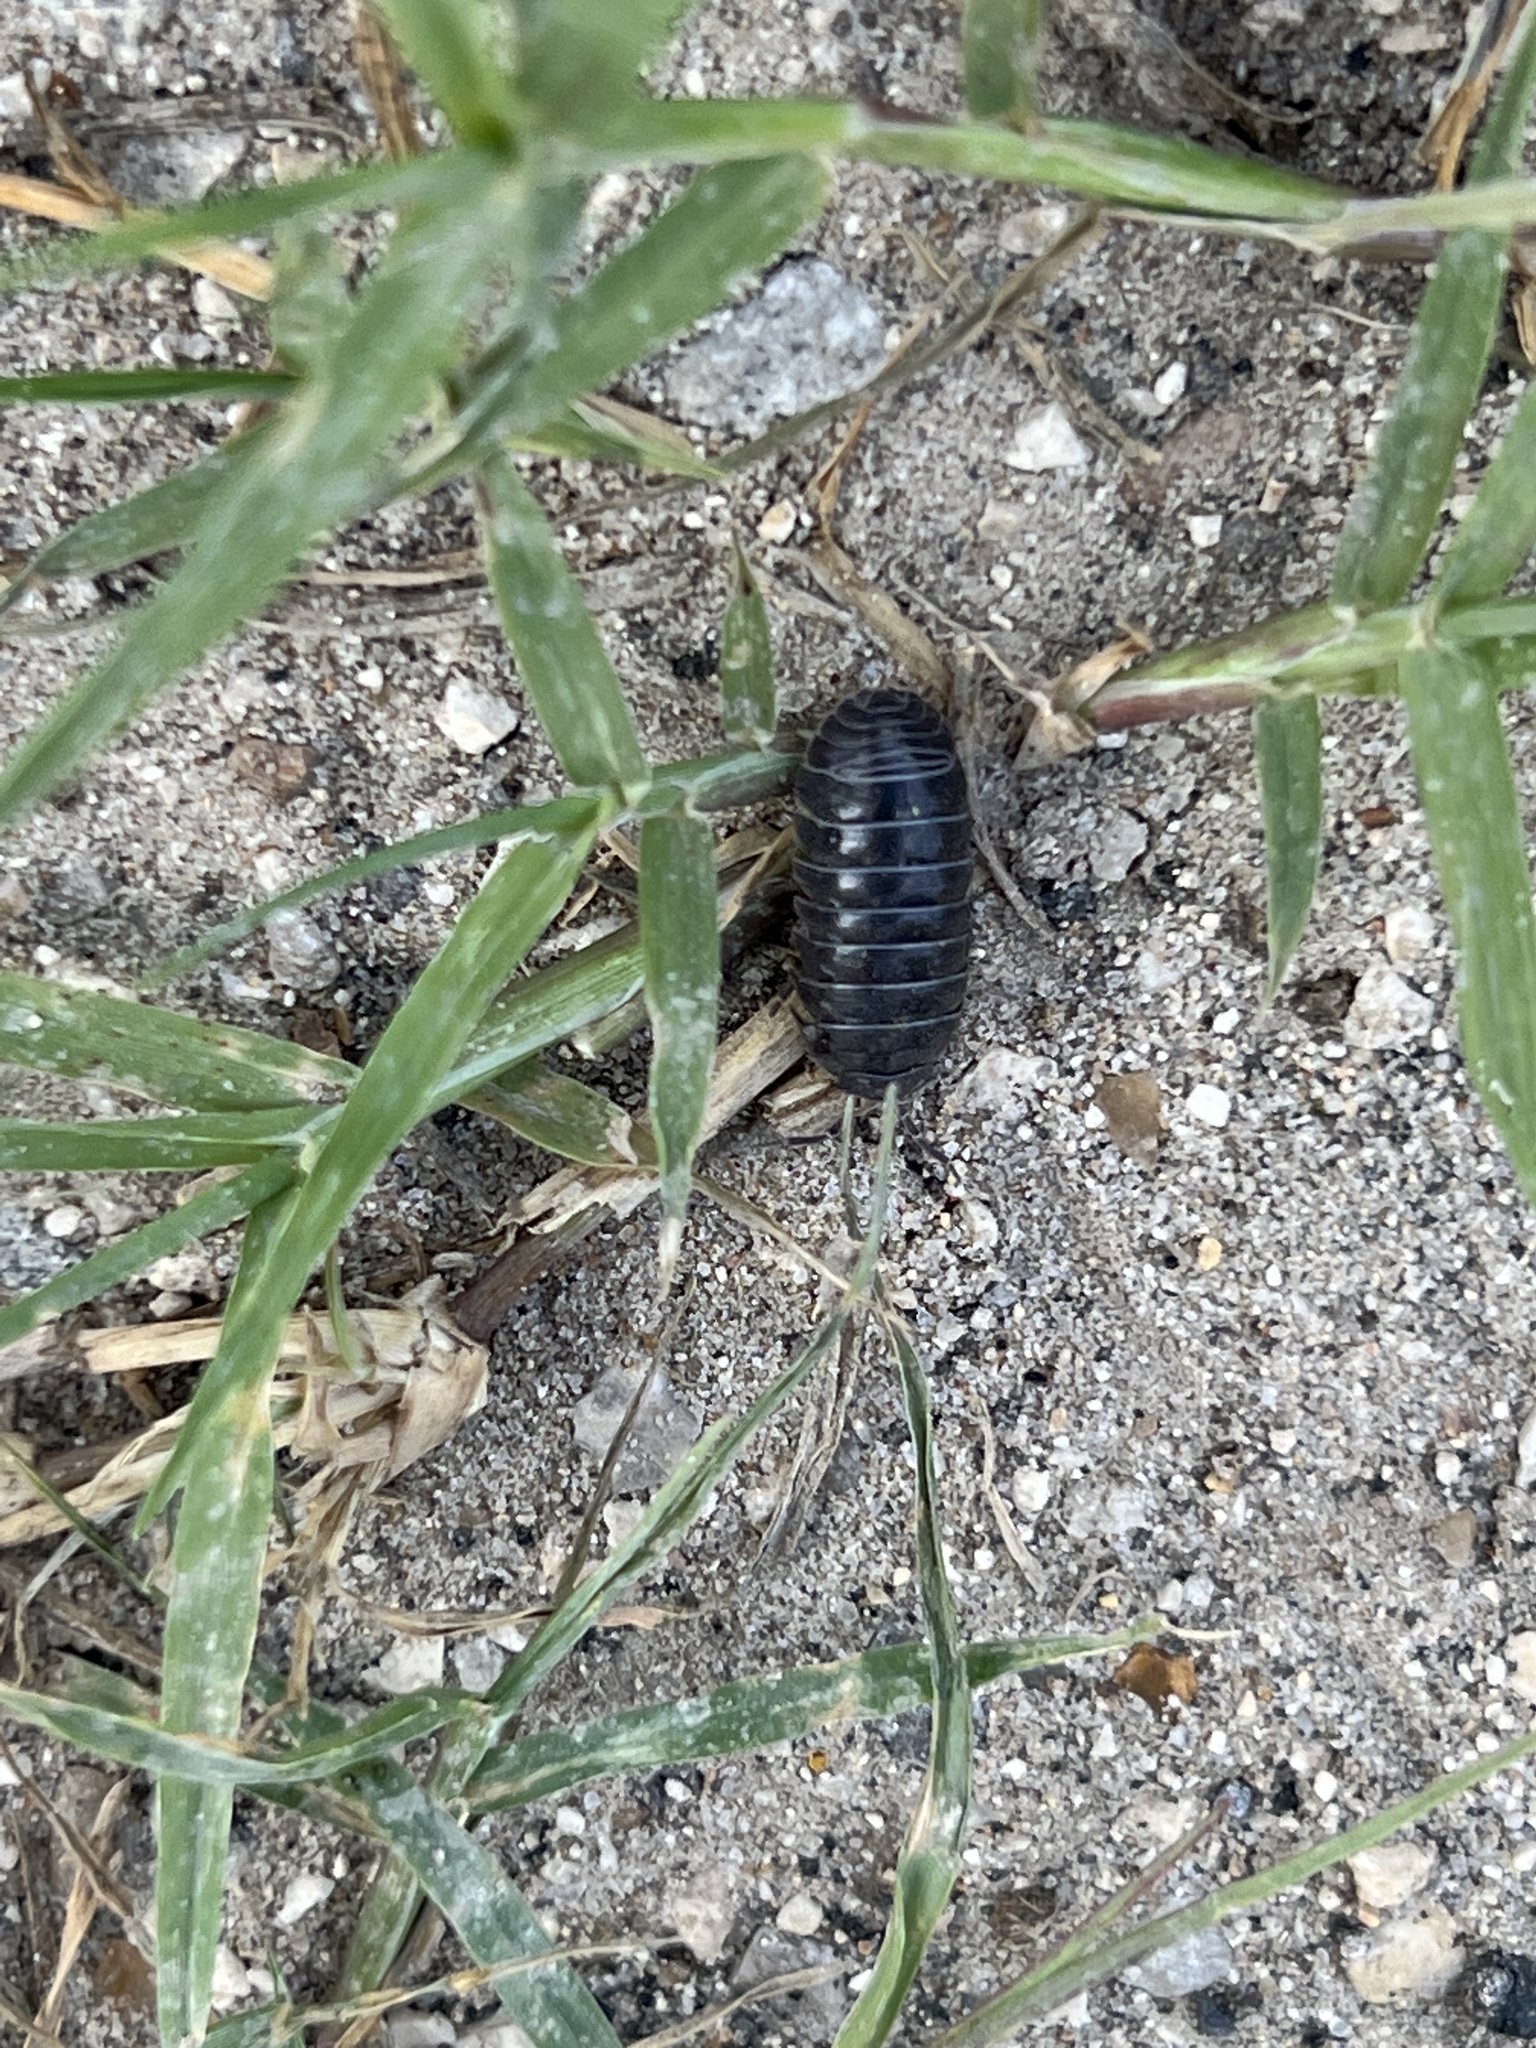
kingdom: Animalia
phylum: Arthropoda
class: Malacostraca
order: Isopoda
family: Armadillidiidae
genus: Armadillidium
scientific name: Armadillidium vulgare
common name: Common pill woodlouse
